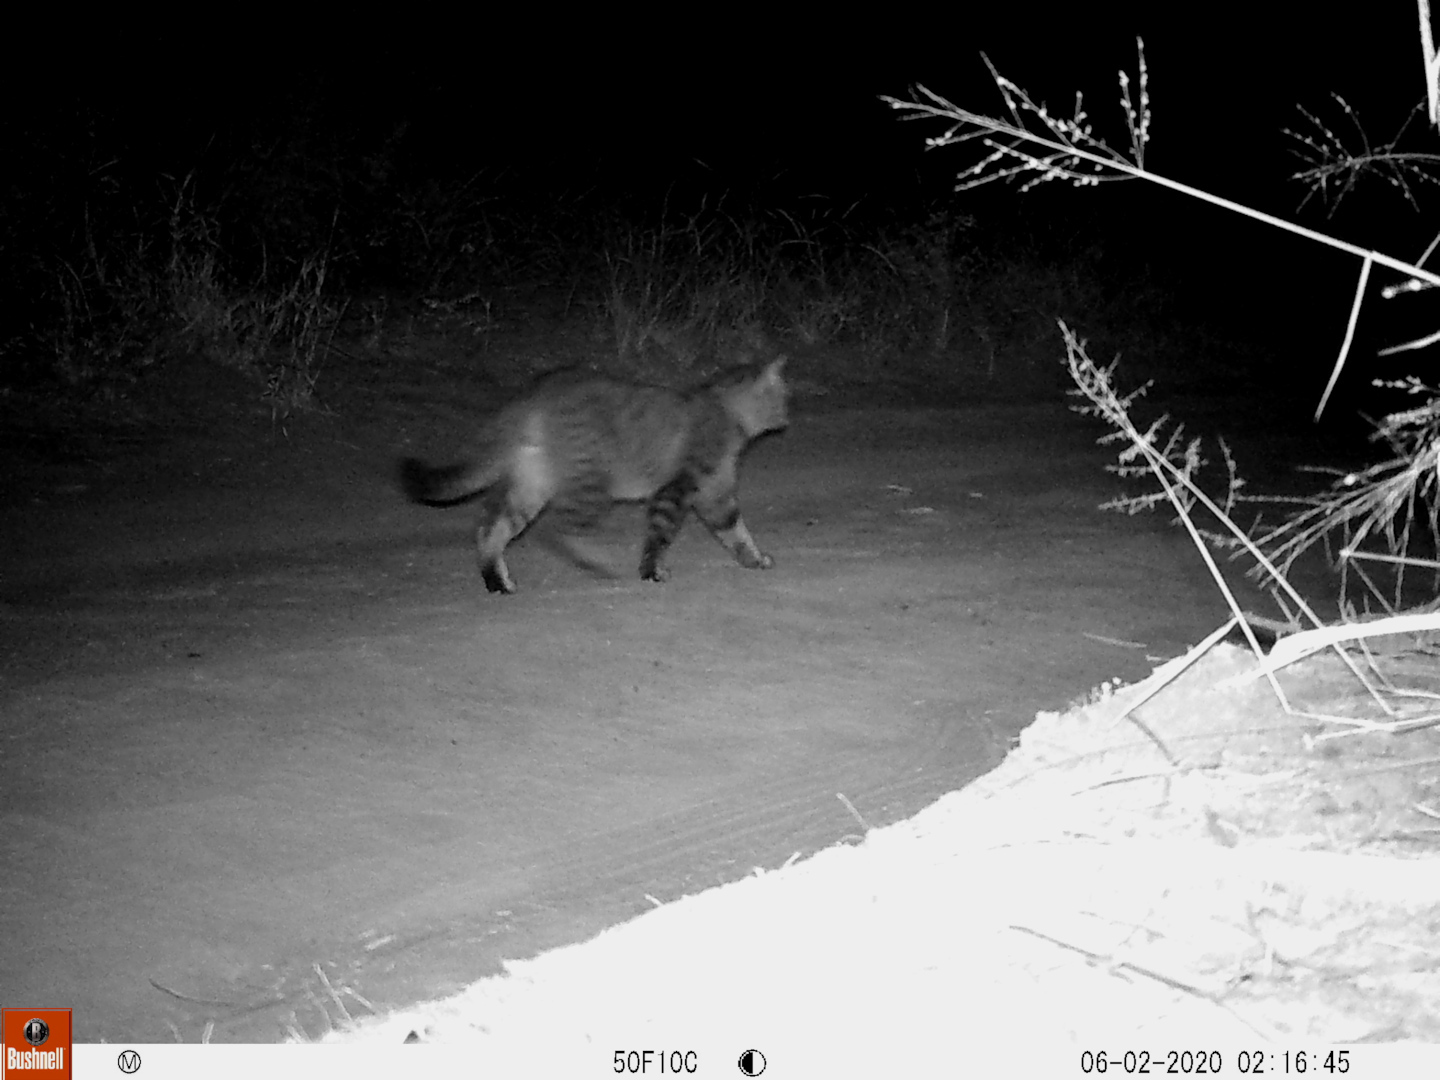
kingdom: Animalia
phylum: Chordata
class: Mammalia
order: Carnivora
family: Felidae
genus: Felis
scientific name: Felis silvestris
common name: Wildcat
